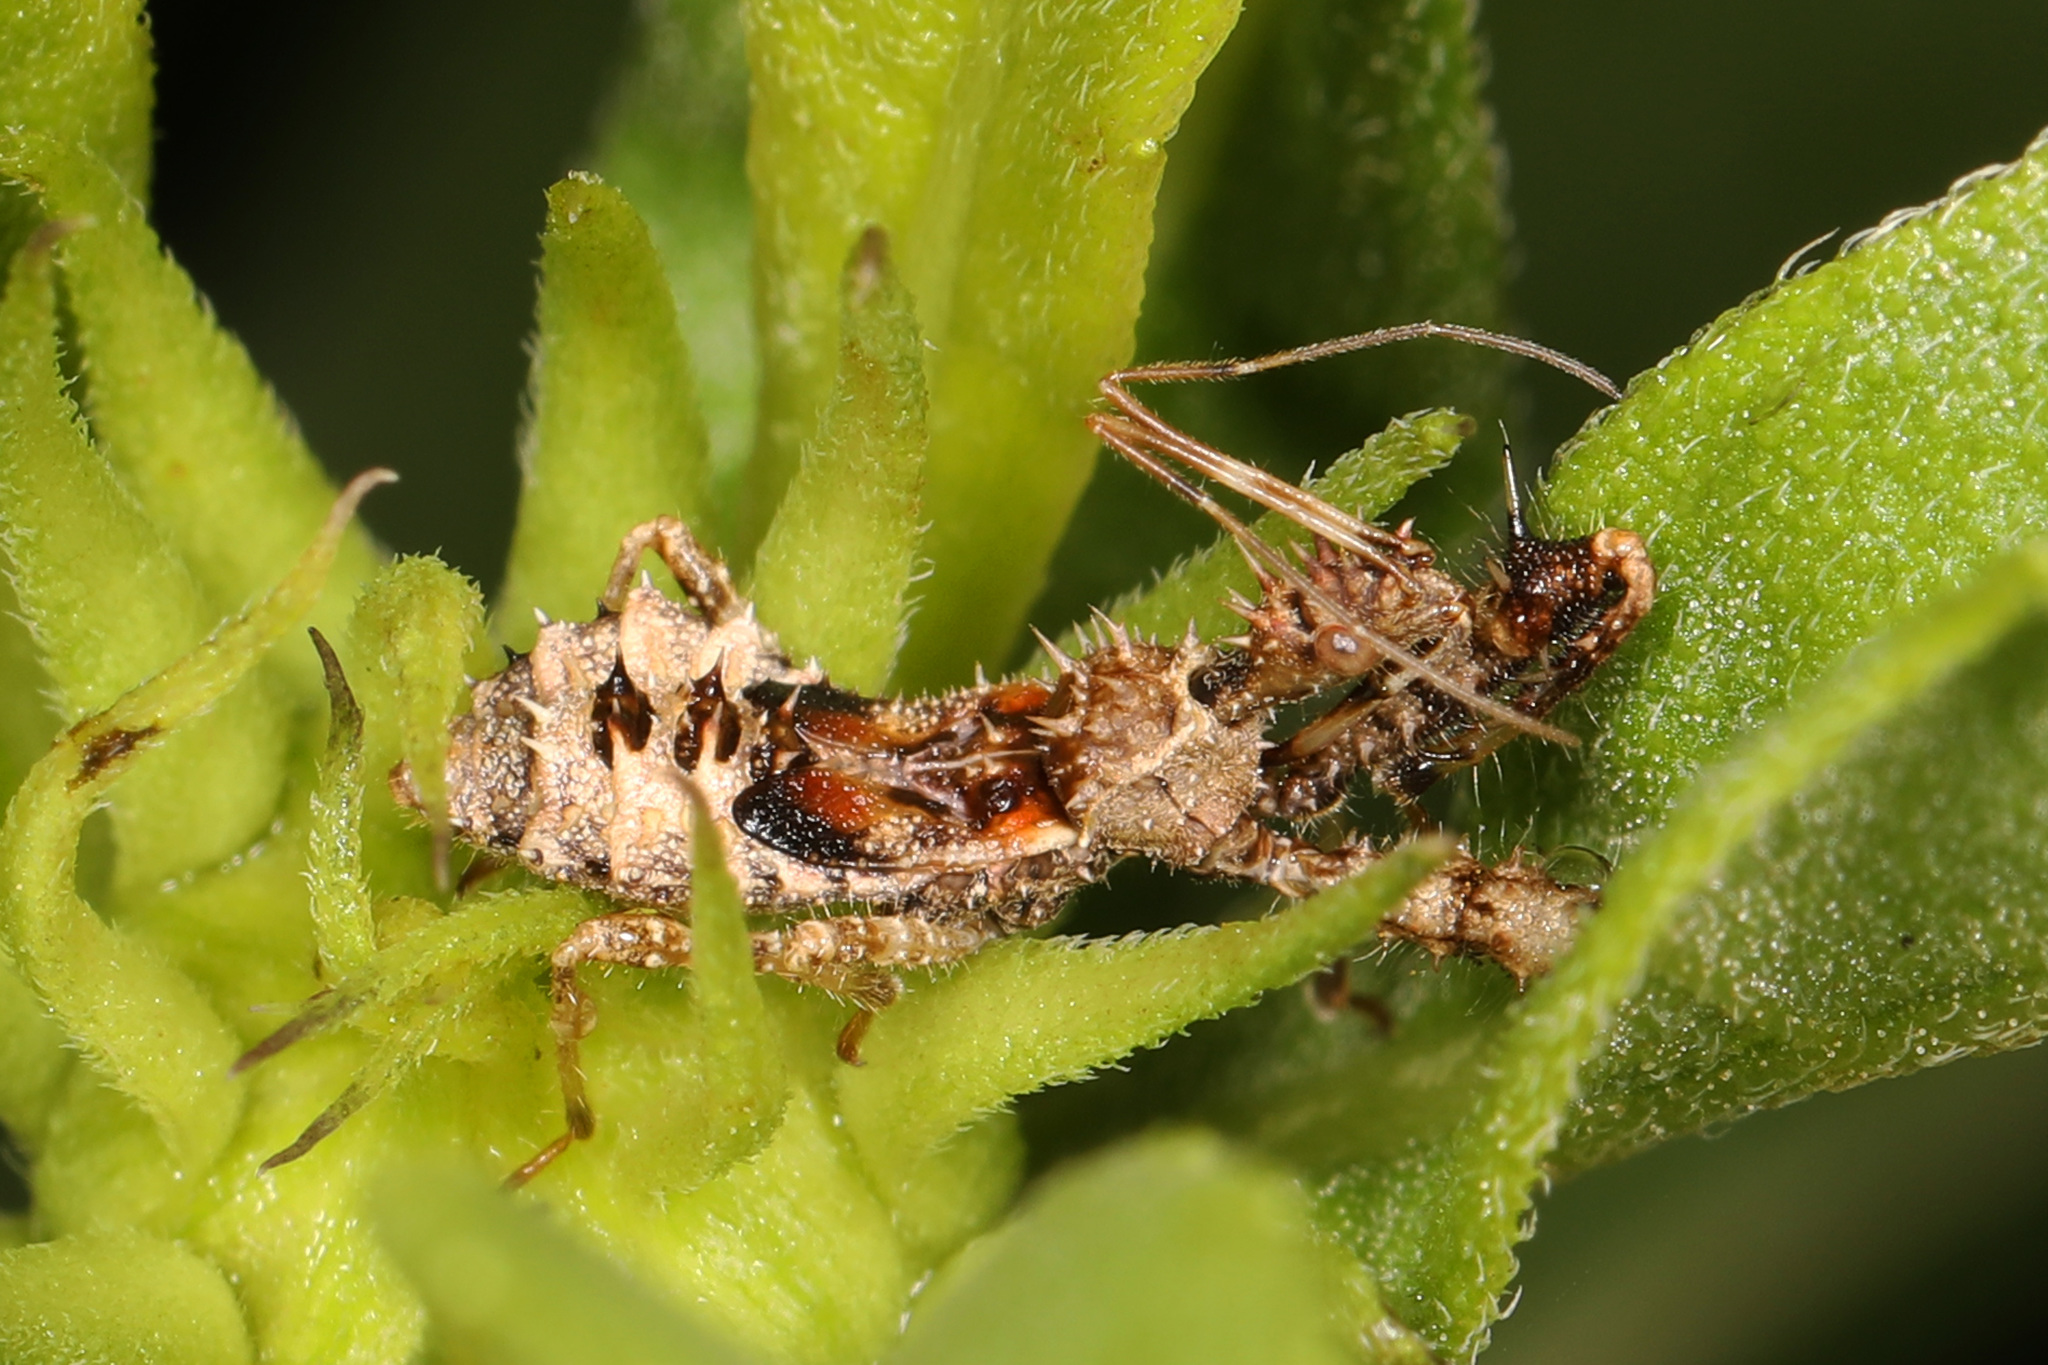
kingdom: Animalia
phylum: Arthropoda
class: Insecta
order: Hemiptera
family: Reduviidae
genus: Sinea
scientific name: Sinea diadema
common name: Spined assassin bug
